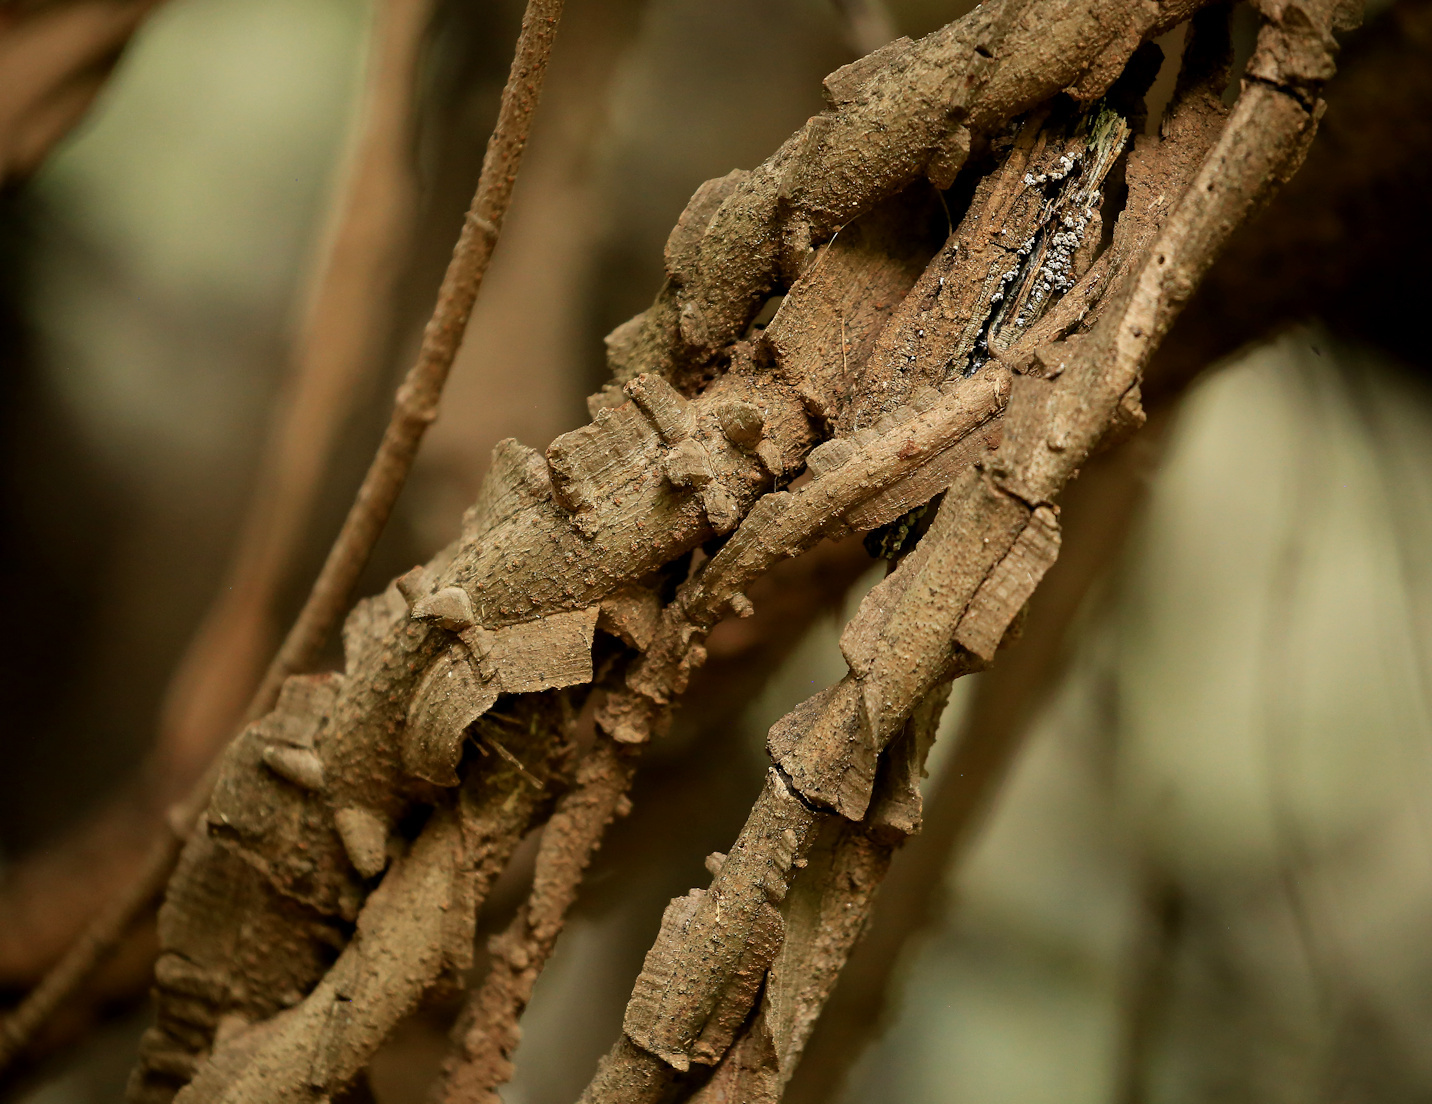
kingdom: Plantae
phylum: Tracheophyta
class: Magnoliopsida
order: Gentianales
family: Apocynaceae
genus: Secamone
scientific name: Secamone schweinfurthii
